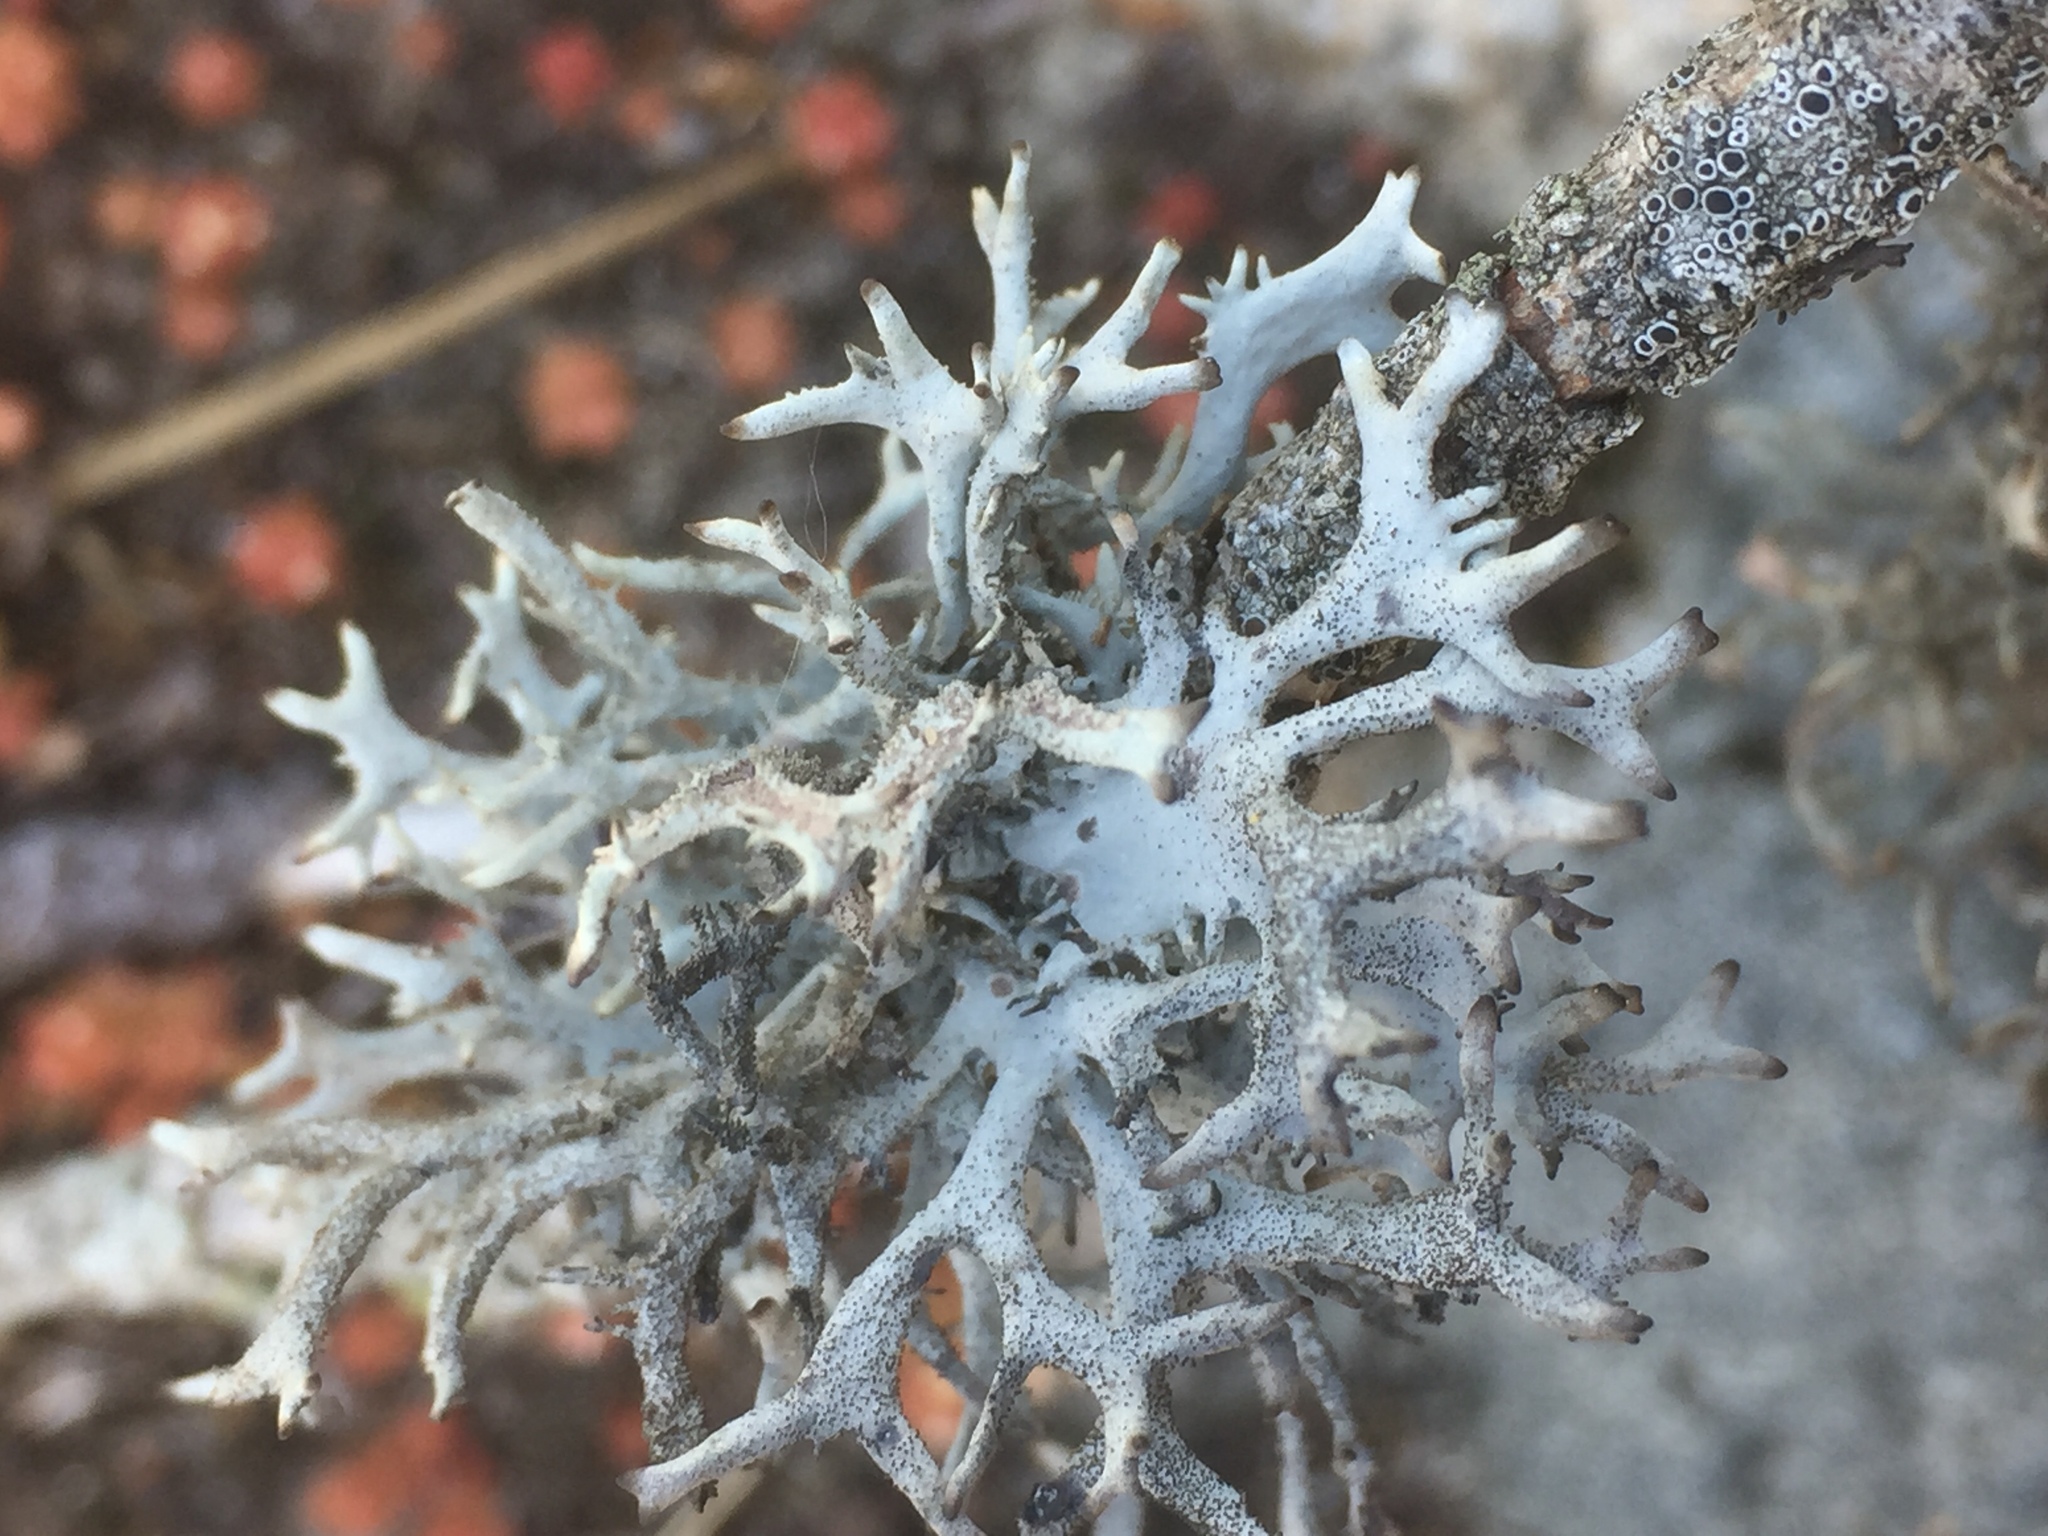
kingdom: Fungi
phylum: Ascomycota
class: Lecanoromycetes
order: Lecanorales
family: Parmeliaceae
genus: Pseudevernia
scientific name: Pseudevernia furfuracea
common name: Tree moss
